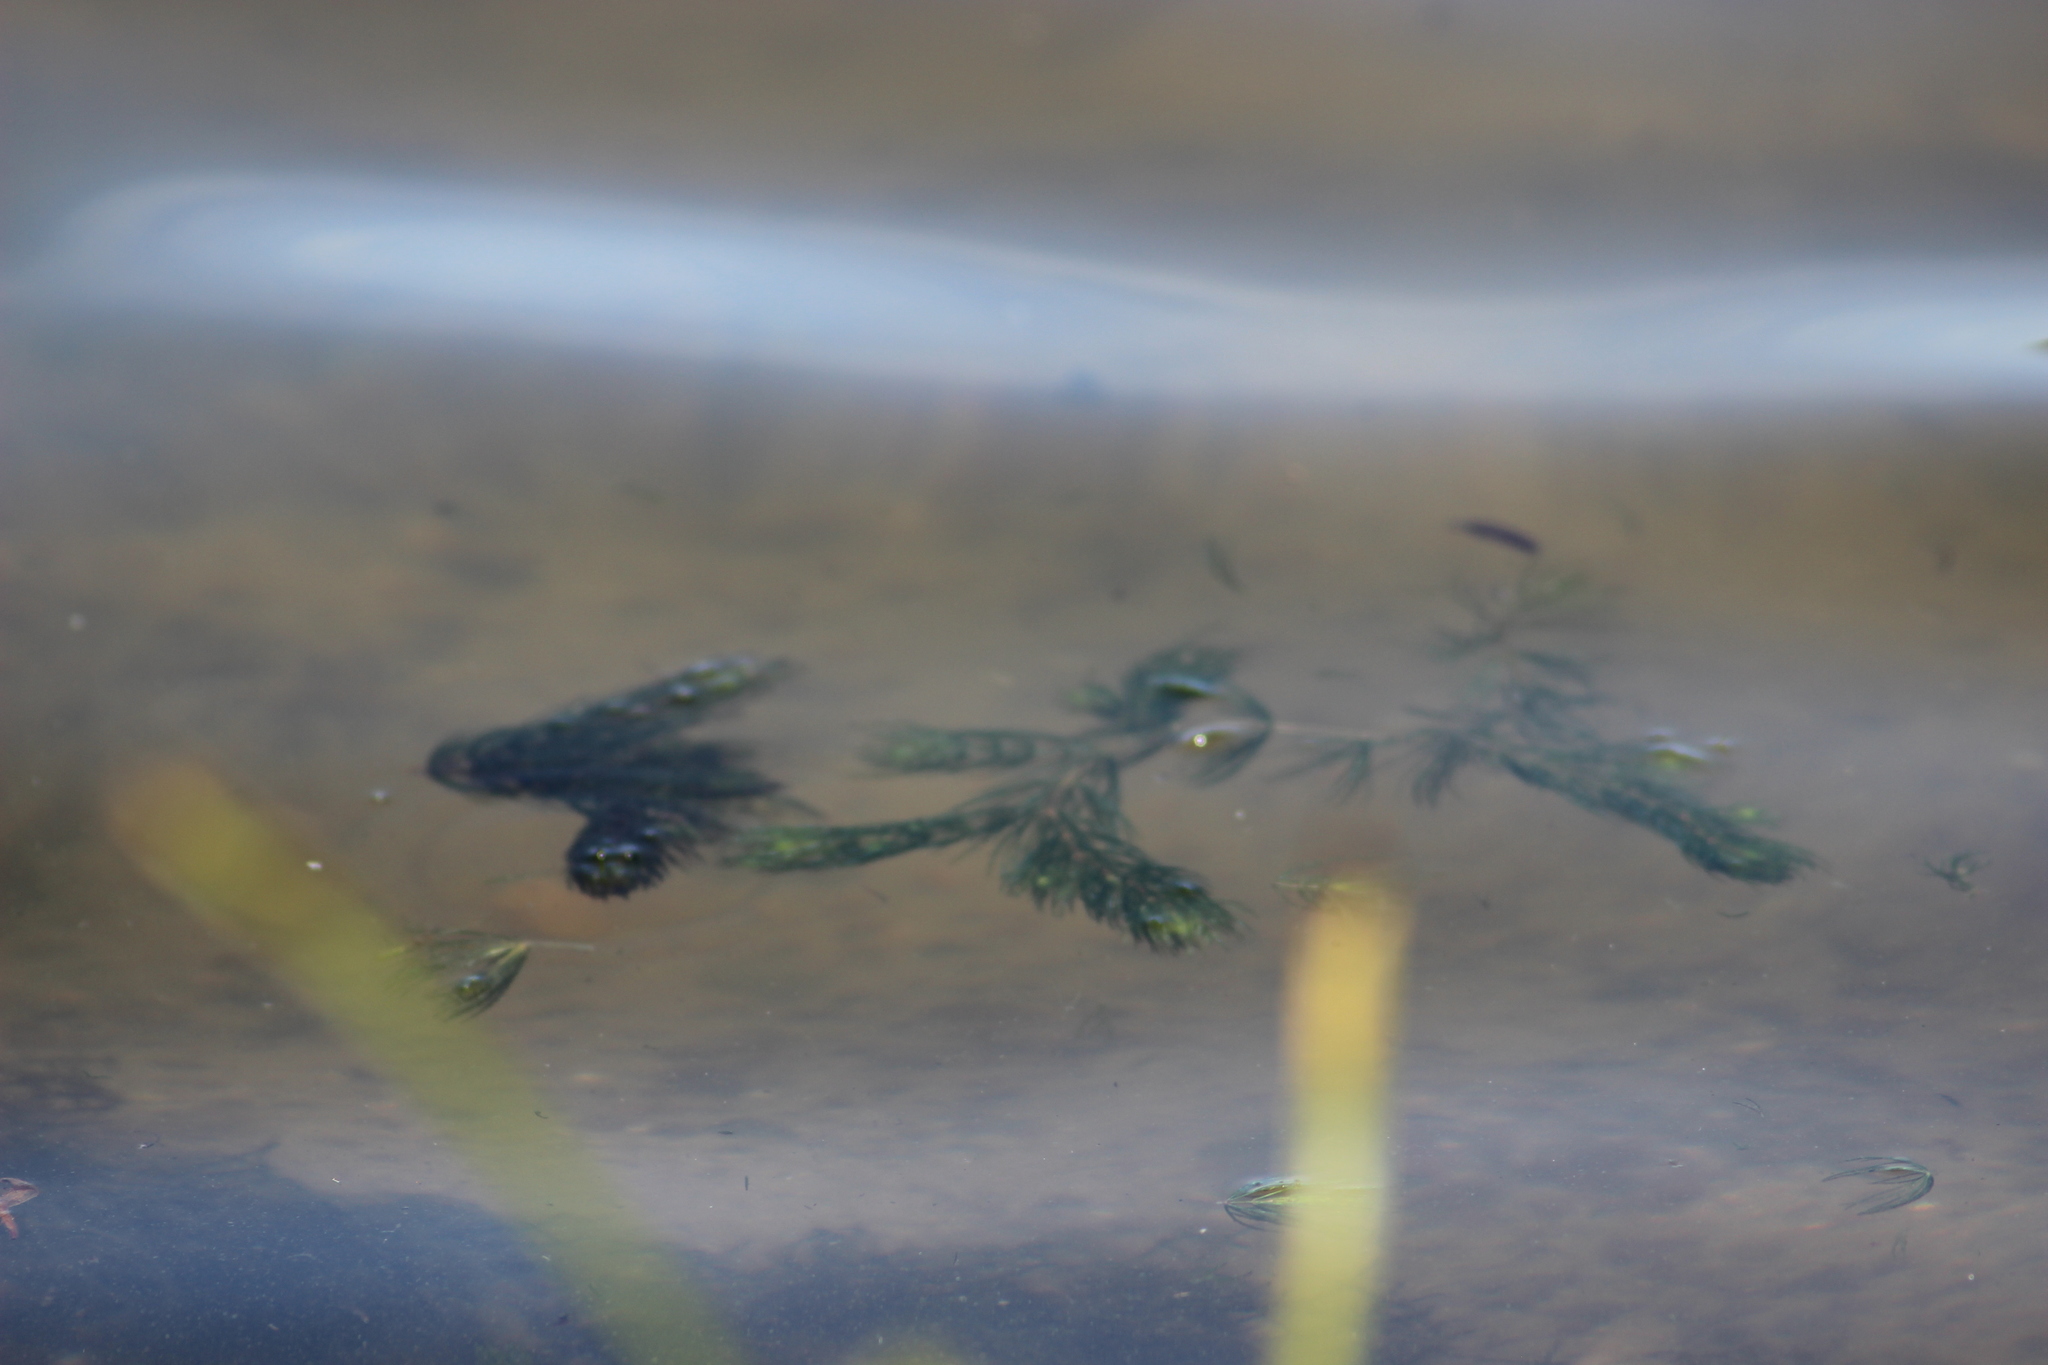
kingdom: Plantae
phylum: Tracheophyta
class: Magnoliopsida
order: Ceratophyllales
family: Ceratophyllaceae
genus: Ceratophyllum
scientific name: Ceratophyllum demersum
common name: Rigid hornwort
